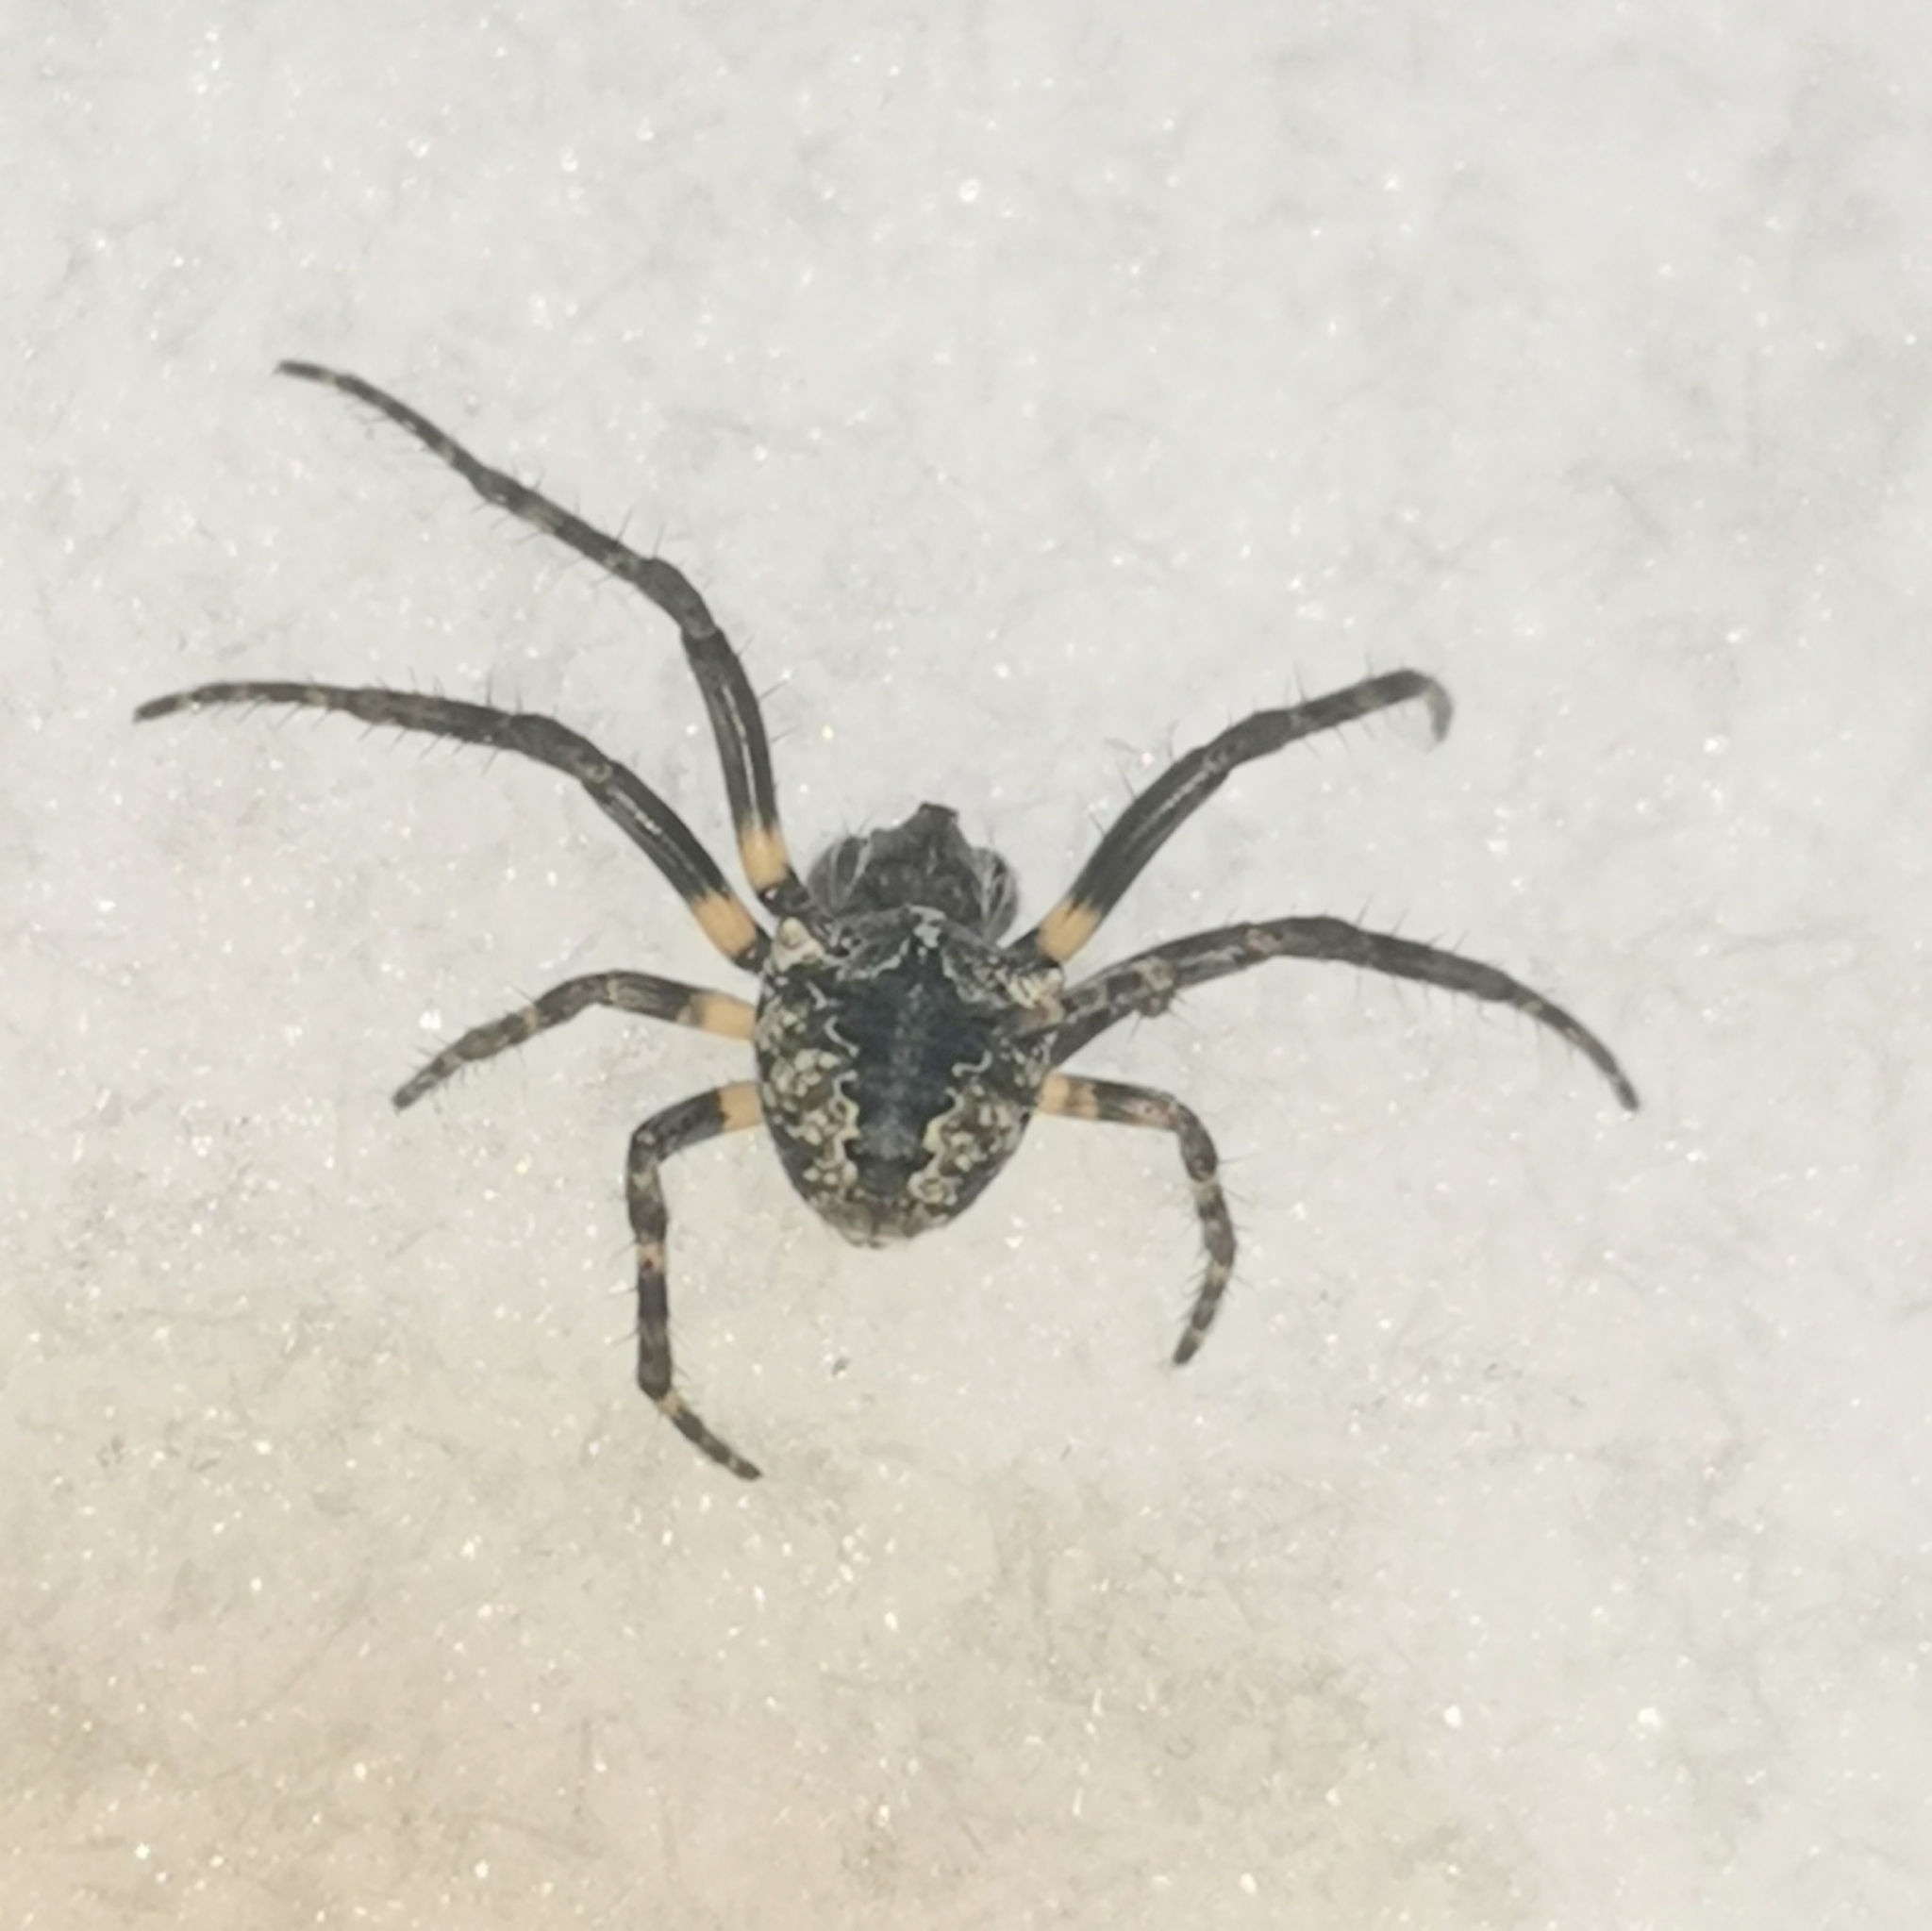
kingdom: Animalia
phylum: Arthropoda
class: Arachnida
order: Araneae
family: Araneidae
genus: Gibbaranea
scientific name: Gibbaranea omoeda
